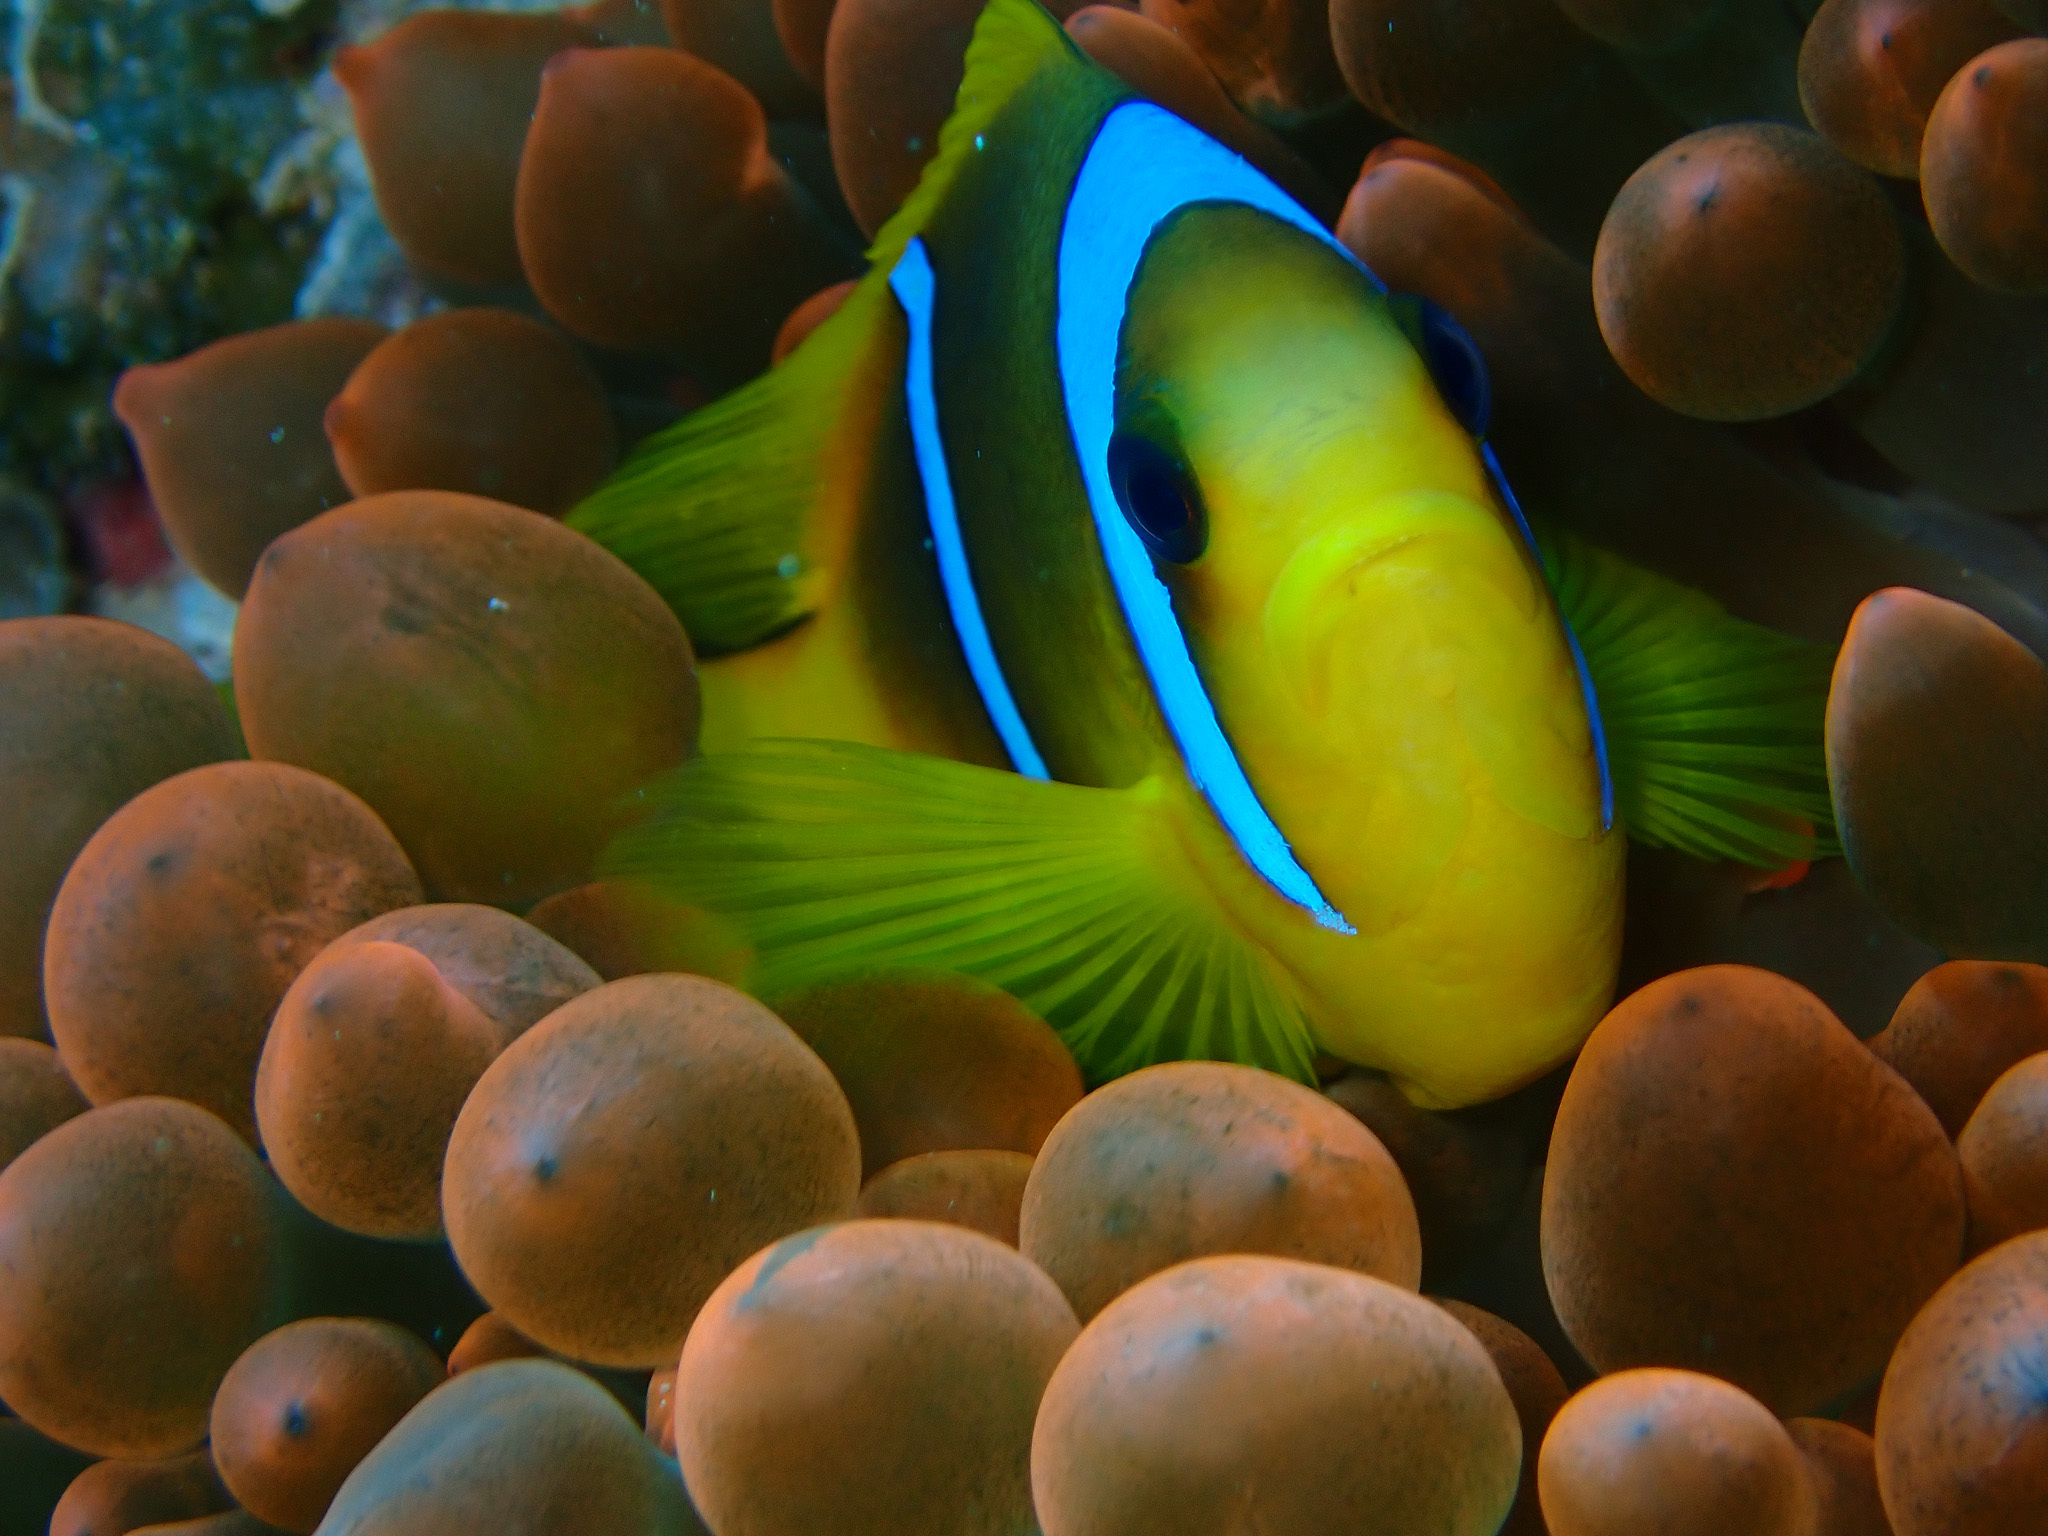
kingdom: Animalia
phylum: Cnidaria
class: Anthozoa
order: Actiniaria
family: Actiniidae
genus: Entacmaea
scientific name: Entacmaea quadricolor
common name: Bulb tentacle sea anemone
